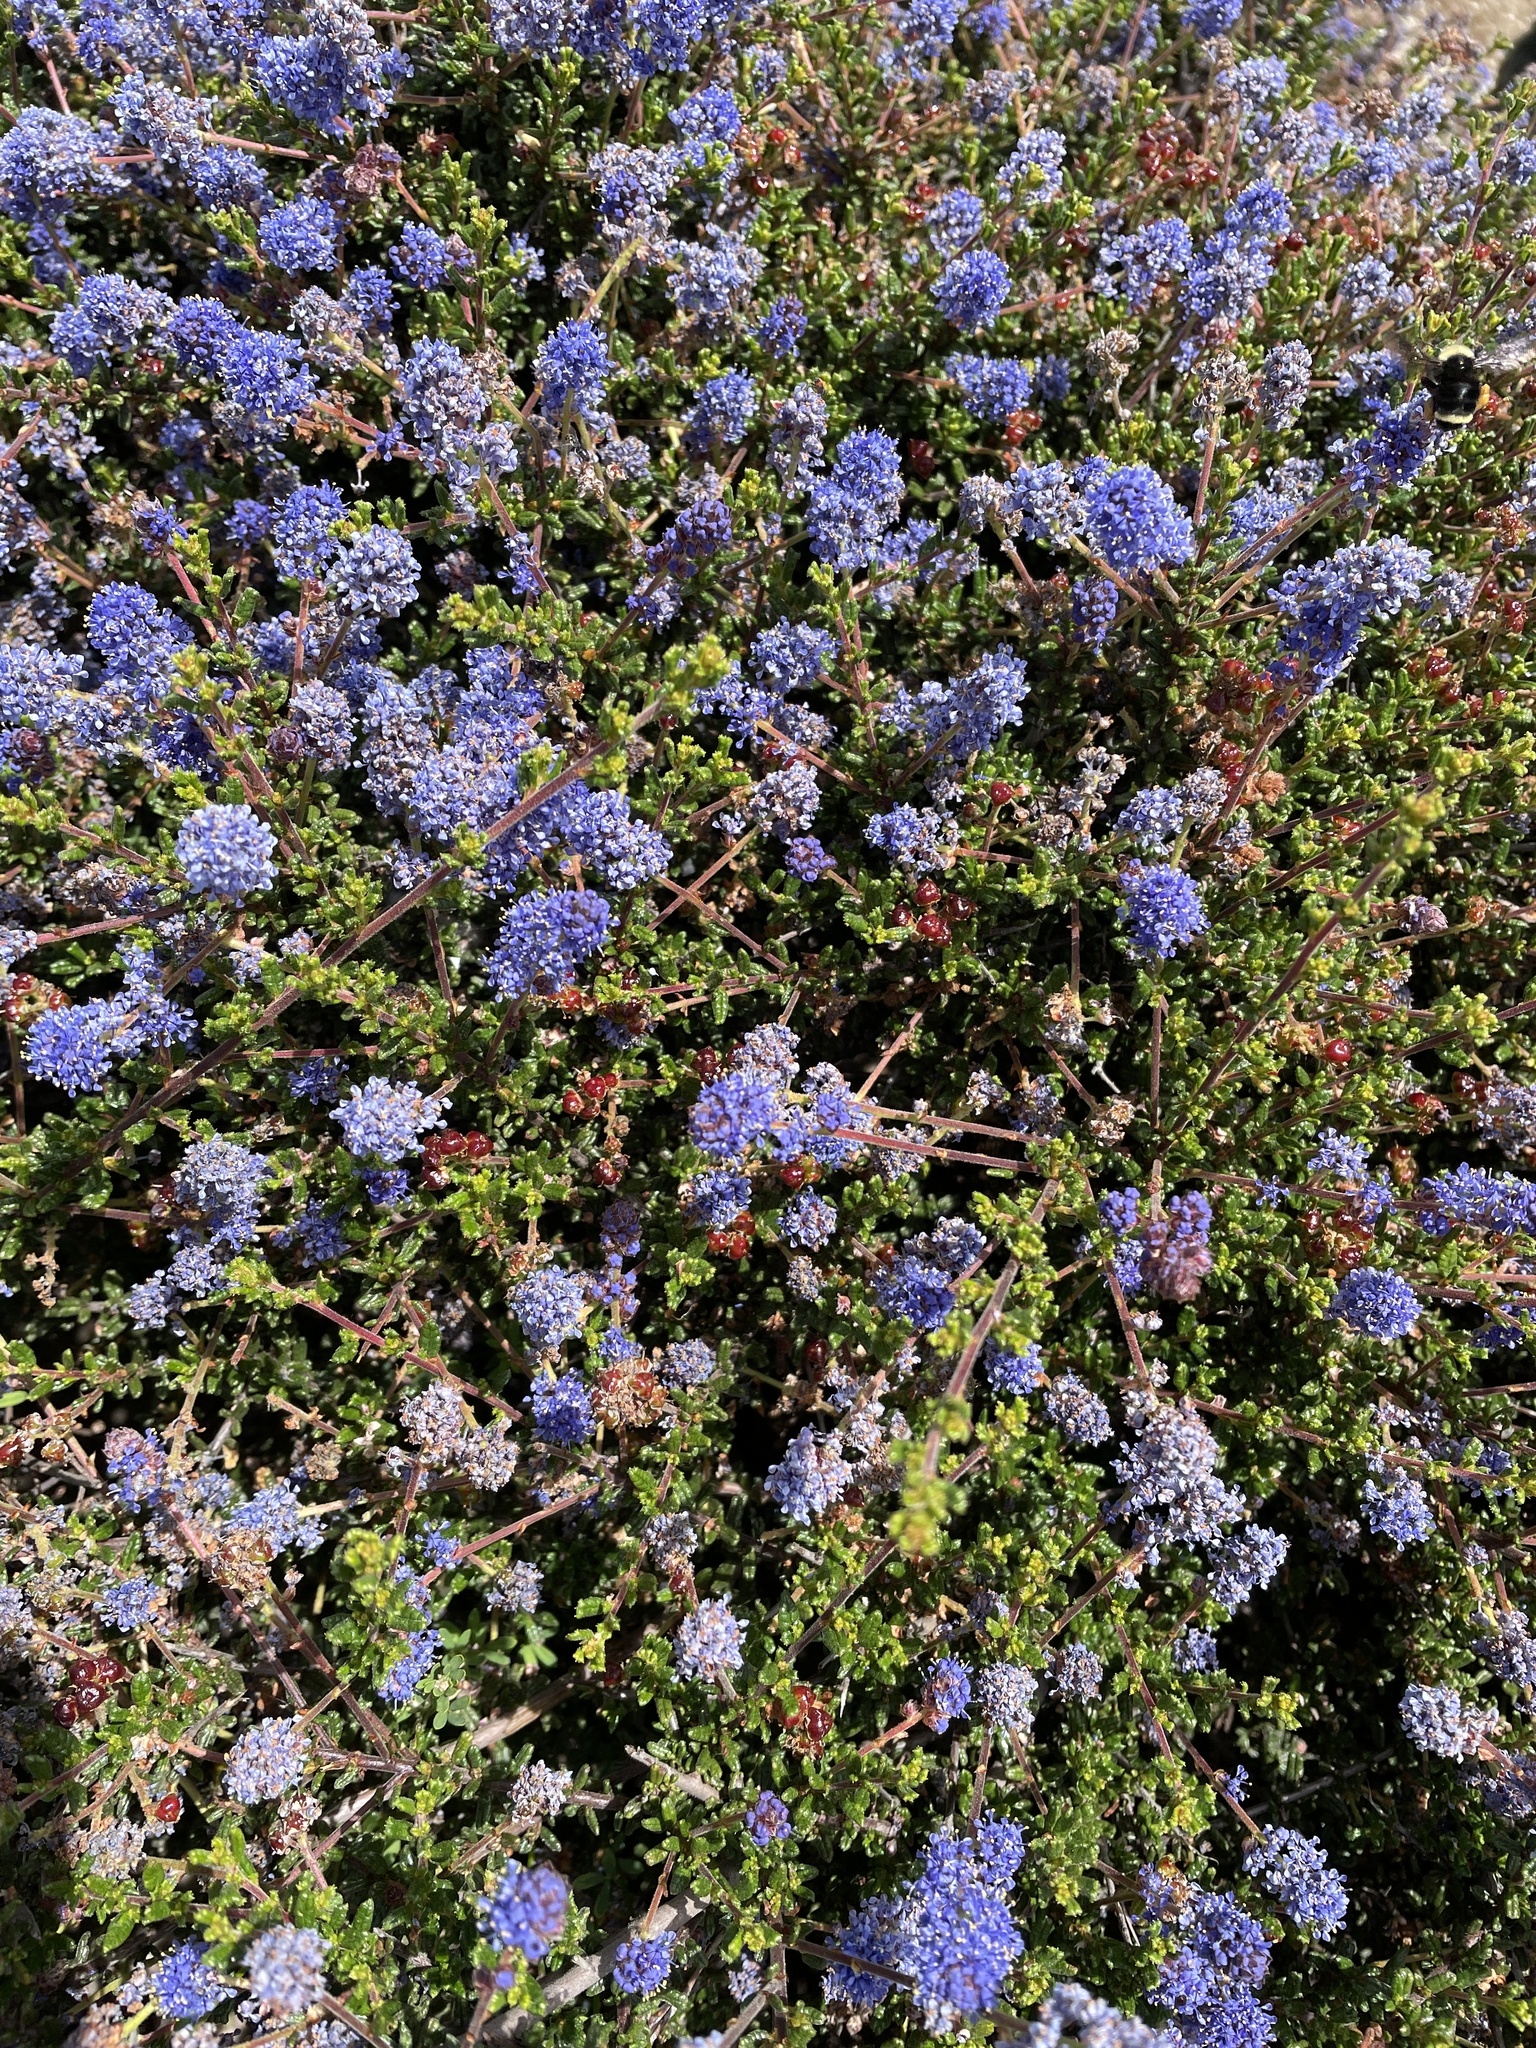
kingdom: Plantae
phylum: Tracheophyta
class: Magnoliopsida
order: Rosales
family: Rhamnaceae
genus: Ceanothus
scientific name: Ceanothus dentatus
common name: Crop-leaf ceanothus
